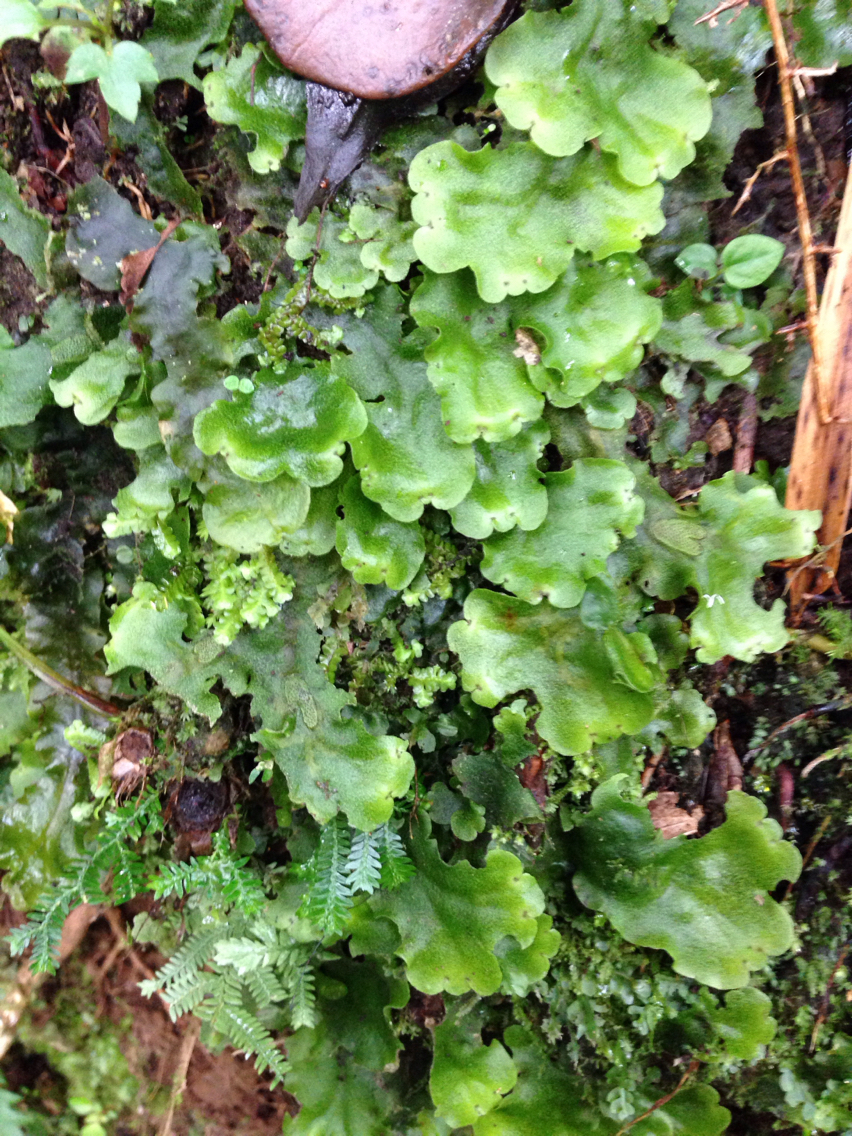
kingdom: Plantae
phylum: Marchantiophyta
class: Marchantiopsida
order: Marchantiales
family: Monocleaceae
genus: Monoclea
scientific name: Monoclea gottschei
